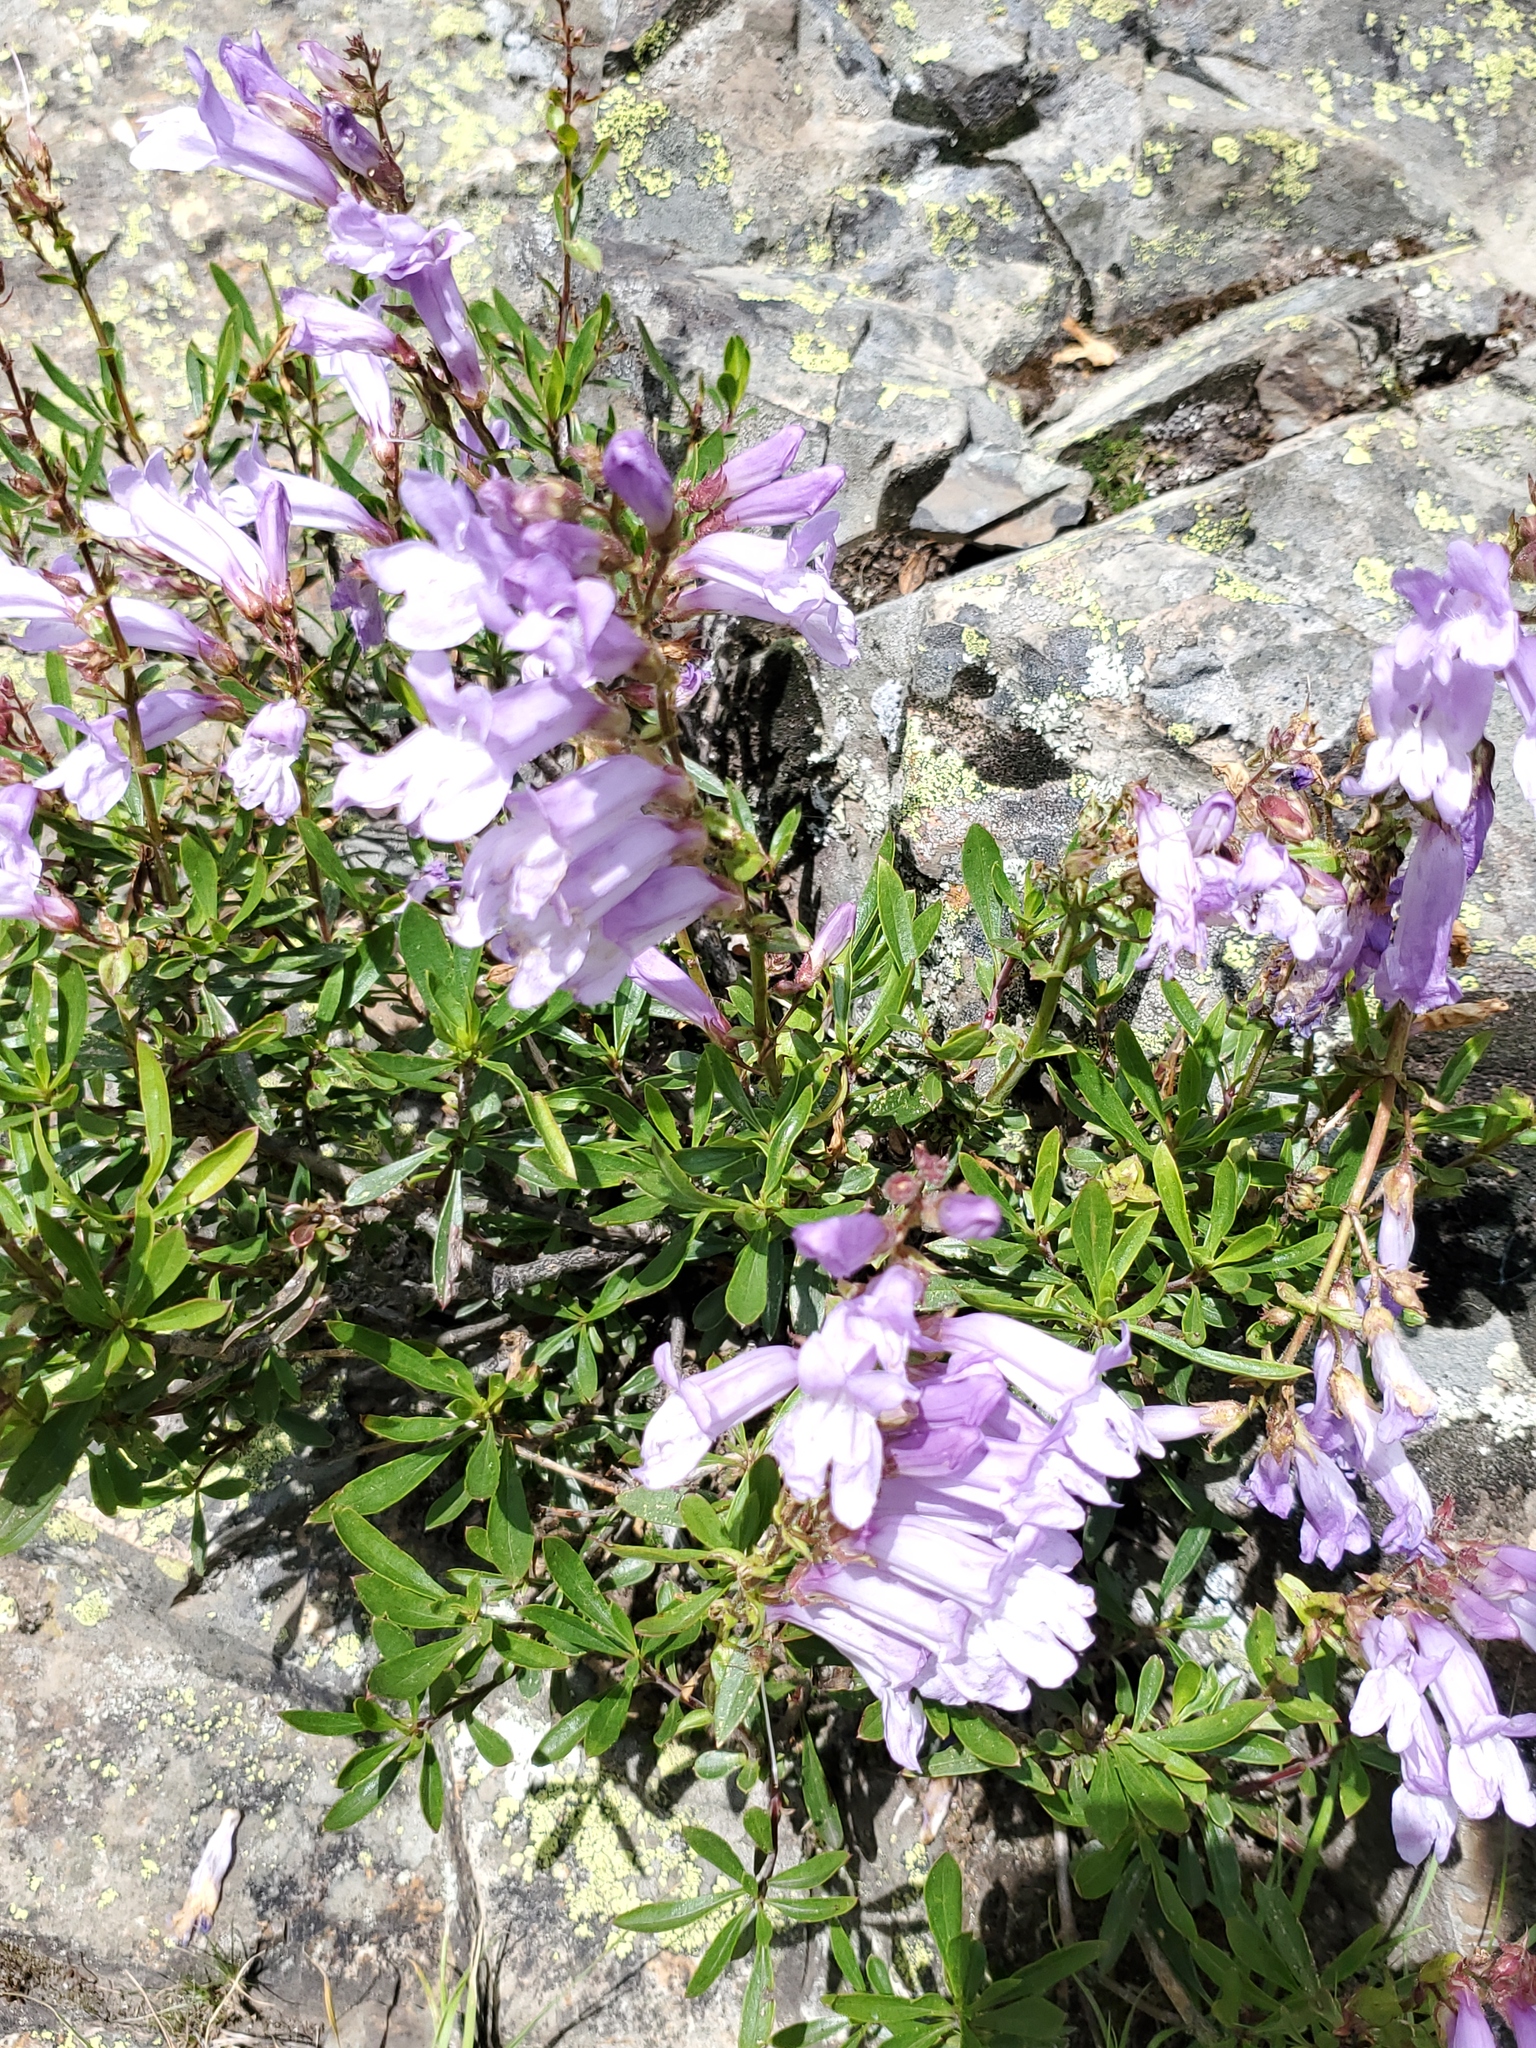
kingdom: Plantae
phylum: Tracheophyta
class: Magnoliopsida
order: Lamiales
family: Plantaginaceae
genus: Penstemon
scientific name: Penstemon fruticosus
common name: Bush penstemon
